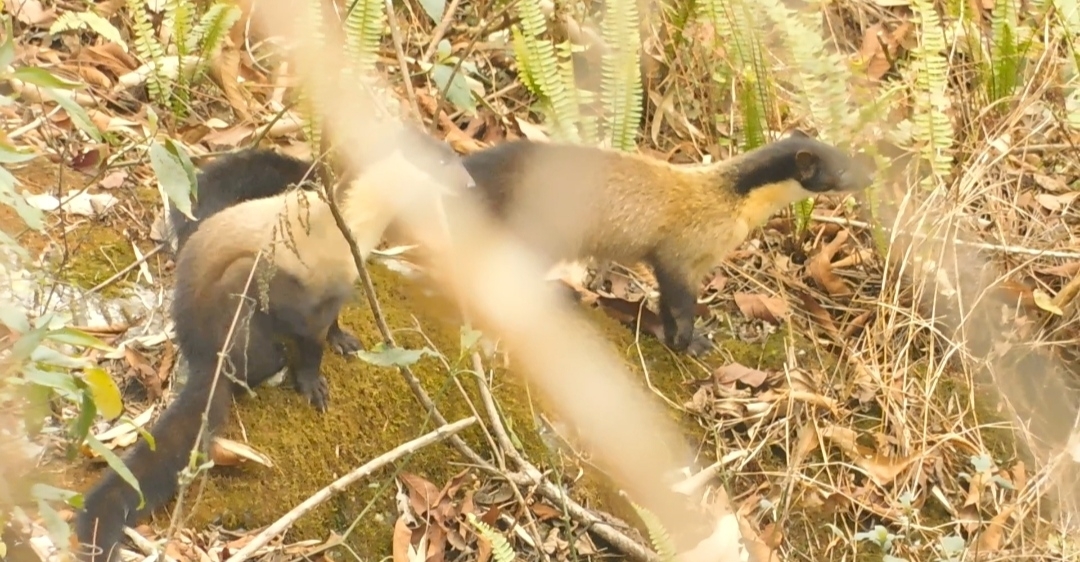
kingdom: Animalia
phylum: Chordata
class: Mammalia
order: Carnivora
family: Mustelidae
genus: Martes
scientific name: Martes flavigula
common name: Yellow-throated marten
